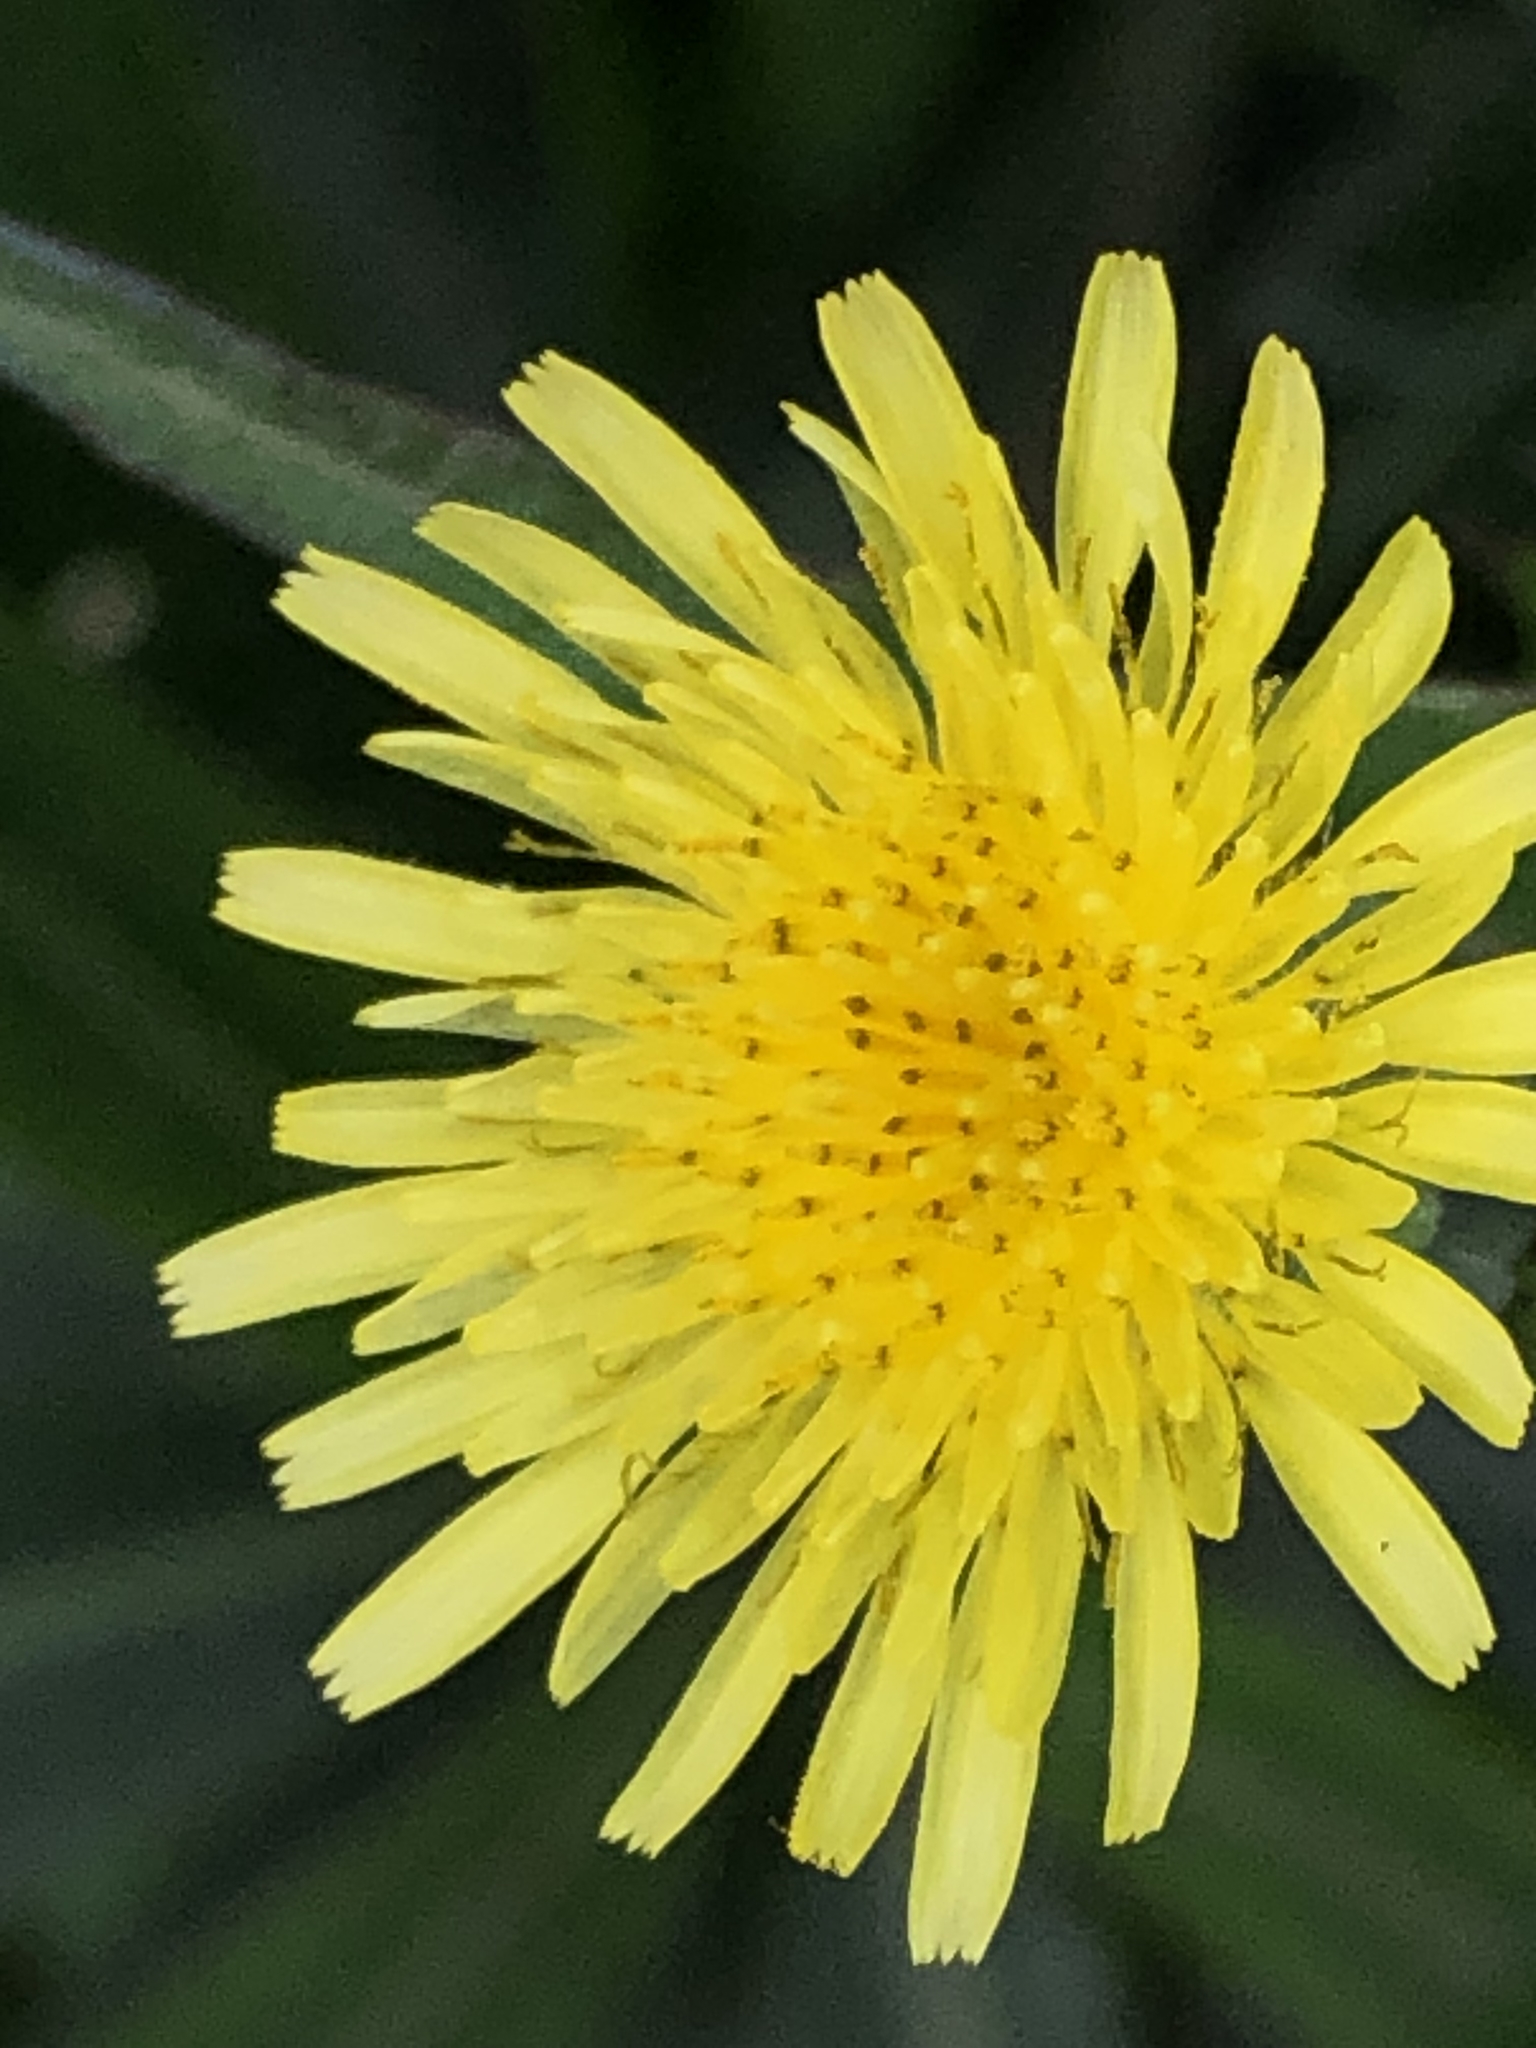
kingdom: Plantae
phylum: Tracheophyta
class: Magnoliopsida
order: Asterales
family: Asteraceae
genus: Sonchus
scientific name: Sonchus oleraceus
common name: Common sowthistle
